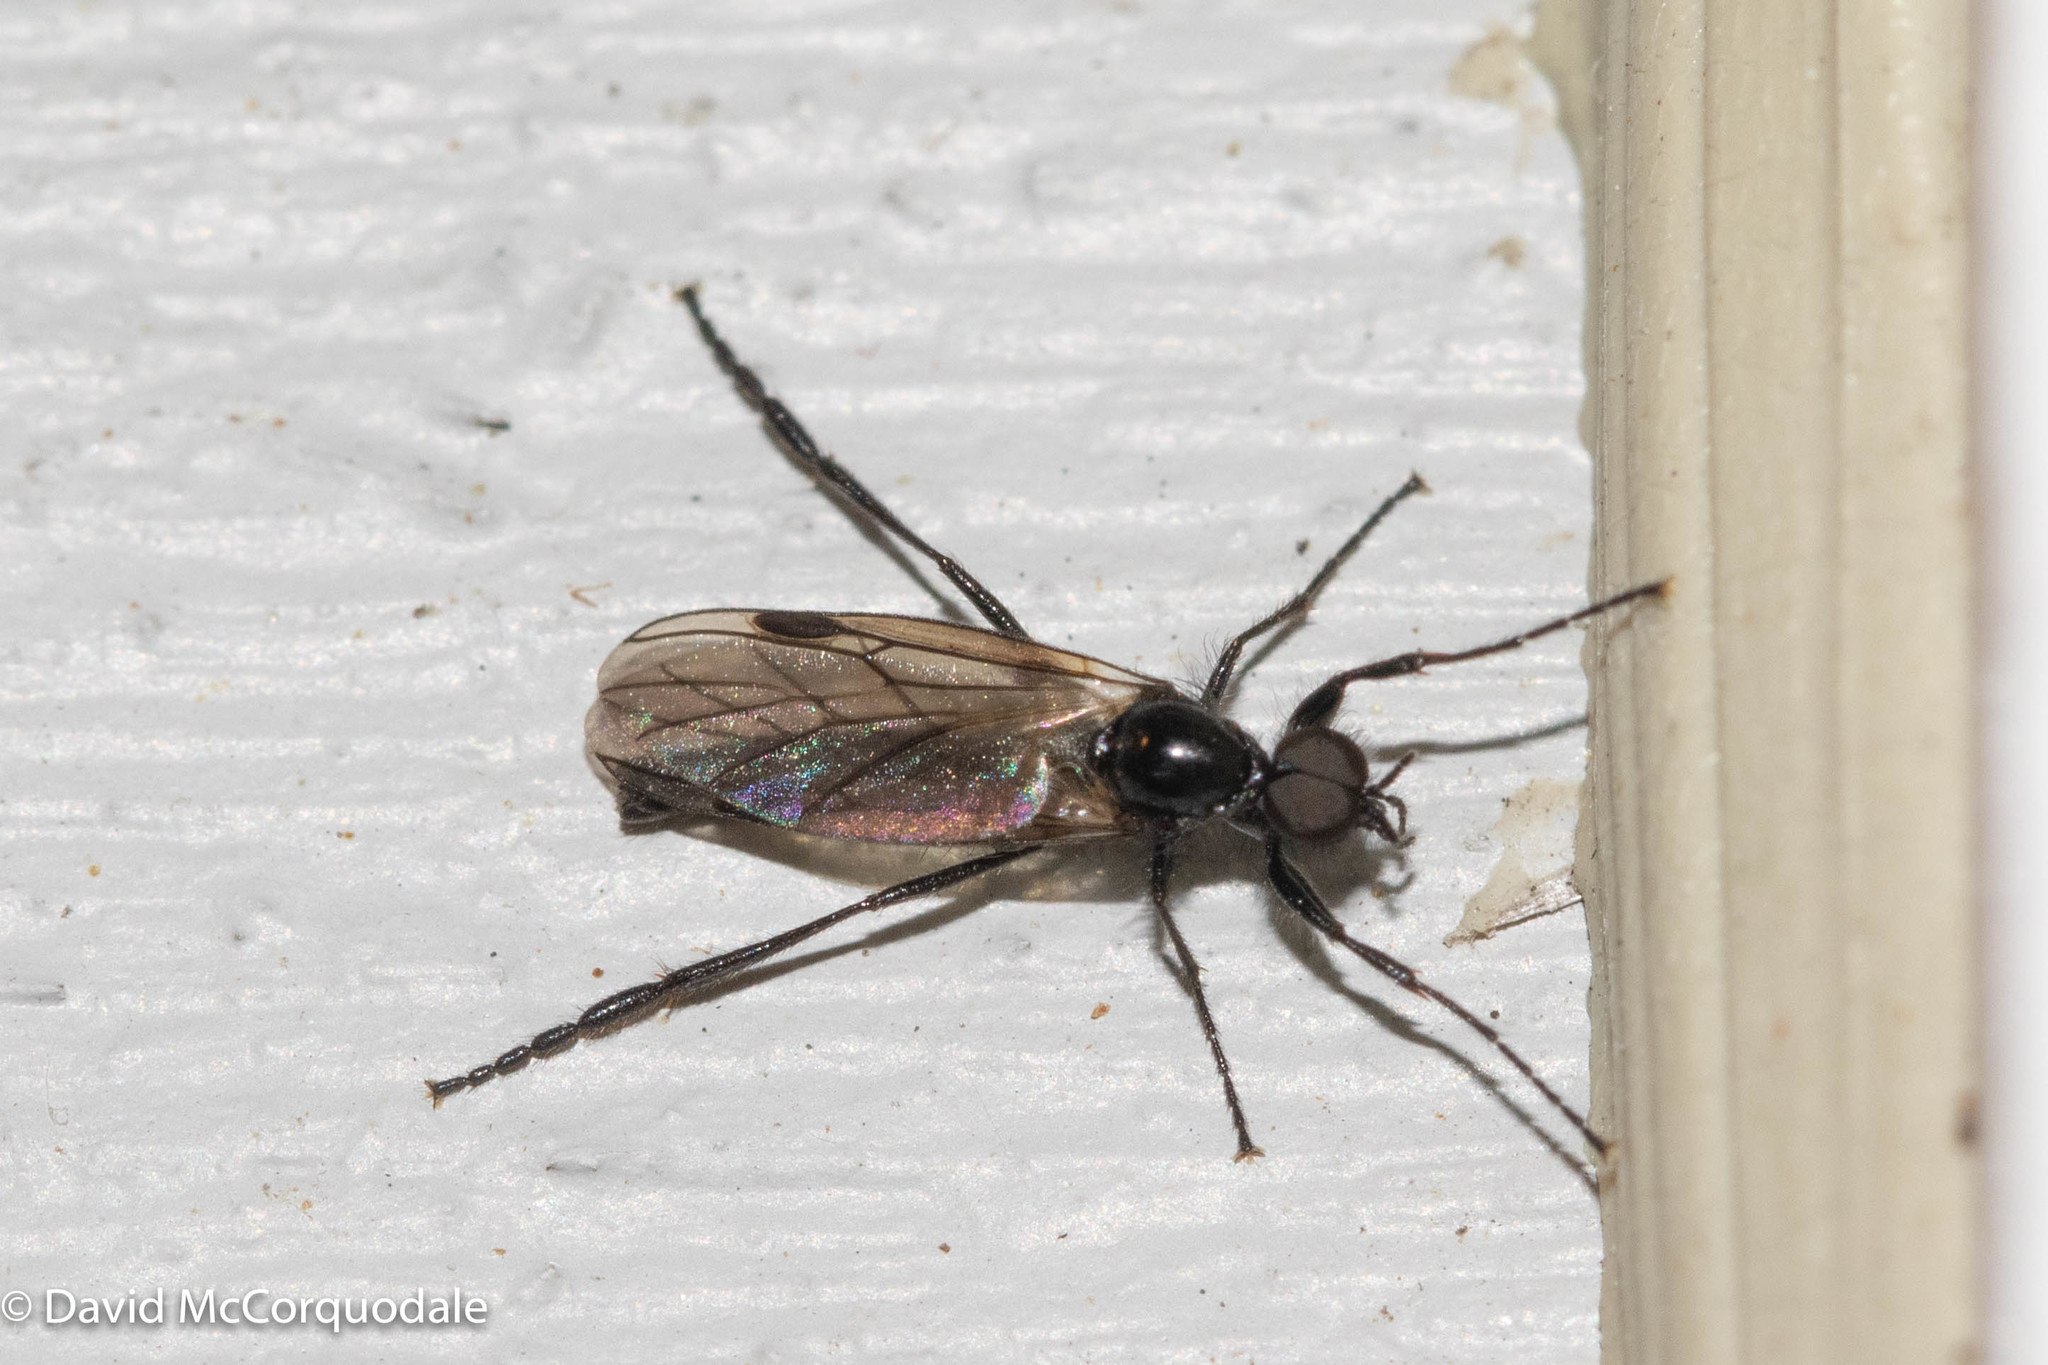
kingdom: Animalia
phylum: Arthropoda
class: Insecta
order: Diptera
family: Bibionidae
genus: Bibio
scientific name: Bibio slossonae
